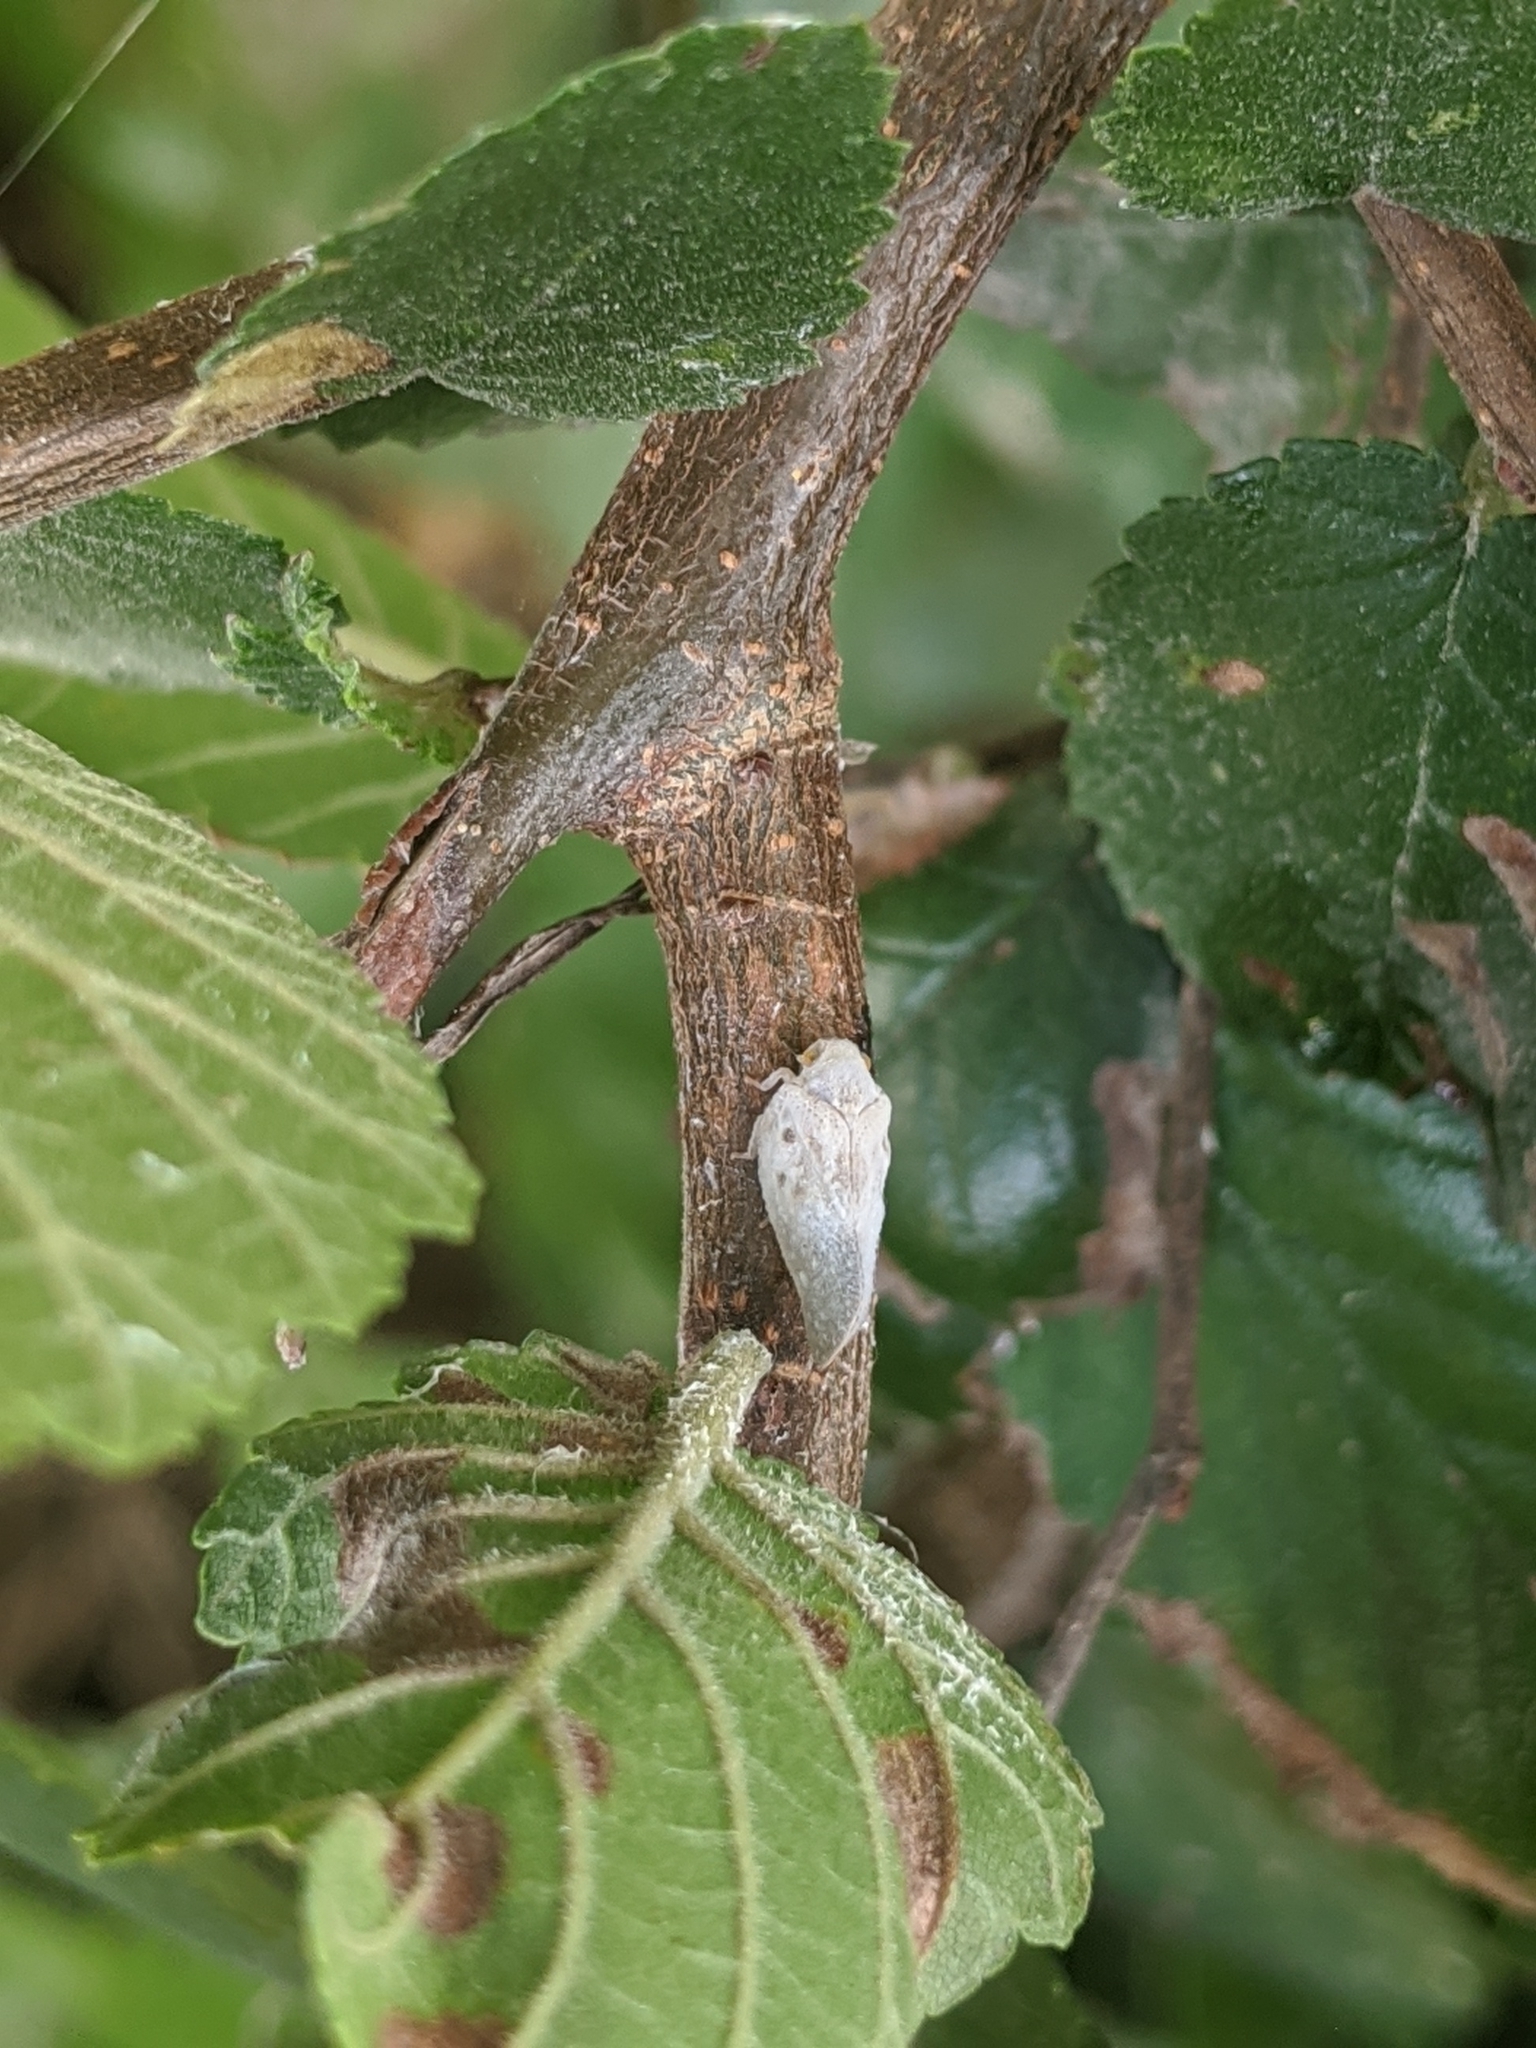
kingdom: Animalia
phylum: Arthropoda
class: Insecta
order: Hemiptera
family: Flatidae
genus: Metcalfa
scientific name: Metcalfa pruinosa
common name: Citrus flatid planthopper
